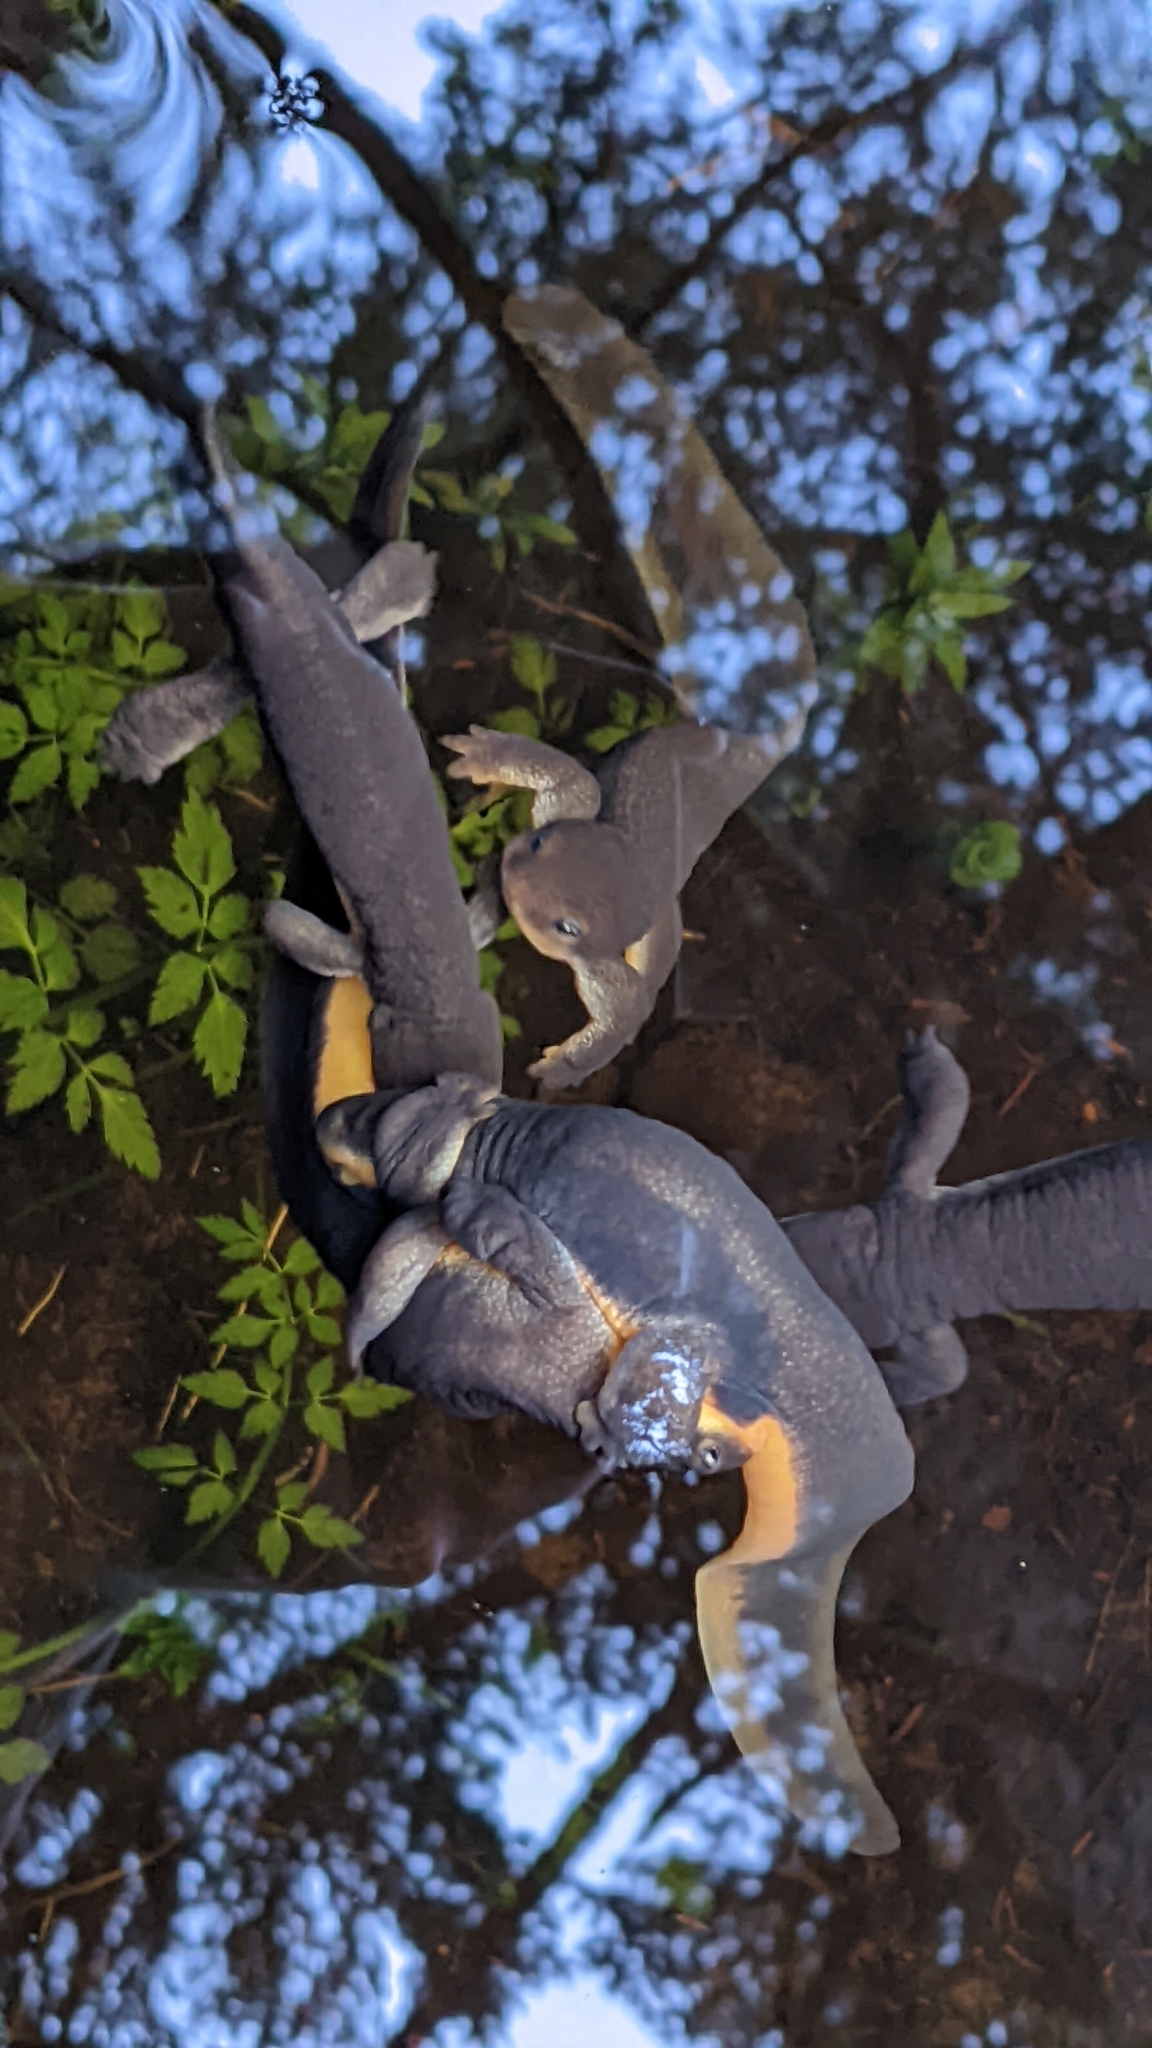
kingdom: Animalia
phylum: Chordata
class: Amphibia
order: Caudata
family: Salamandridae
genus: Taricha
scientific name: Taricha granulosa
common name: Roughskin newt
